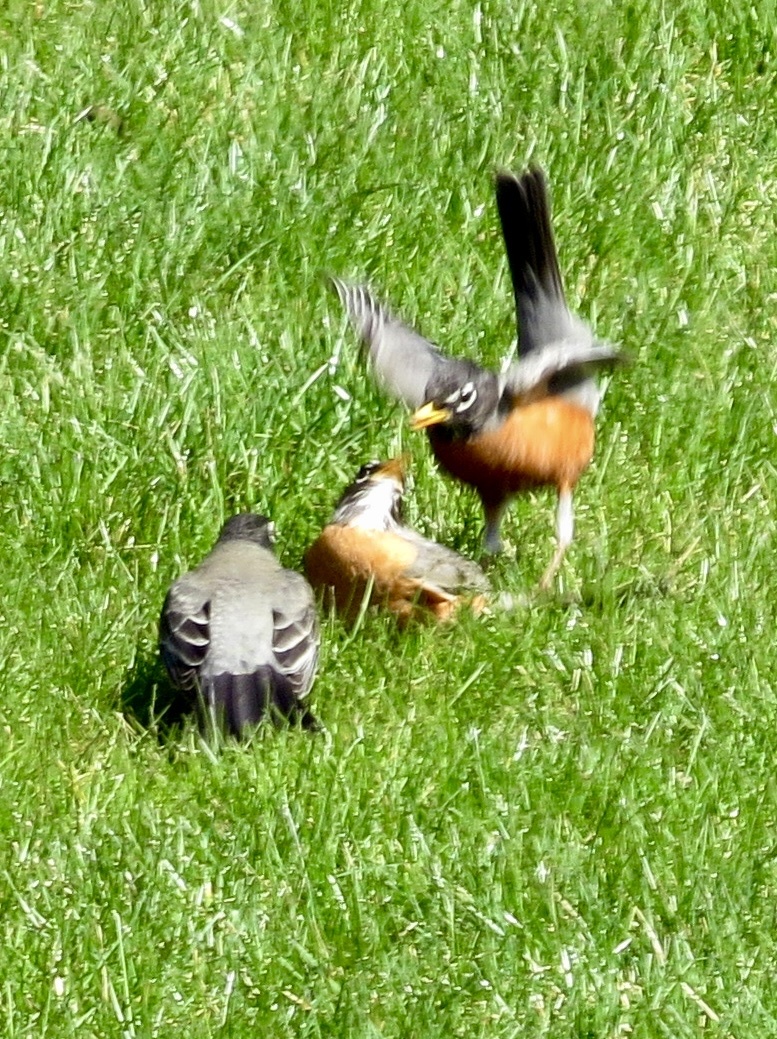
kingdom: Animalia
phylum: Chordata
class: Aves
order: Passeriformes
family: Turdidae
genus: Turdus
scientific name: Turdus migratorius
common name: American robin
